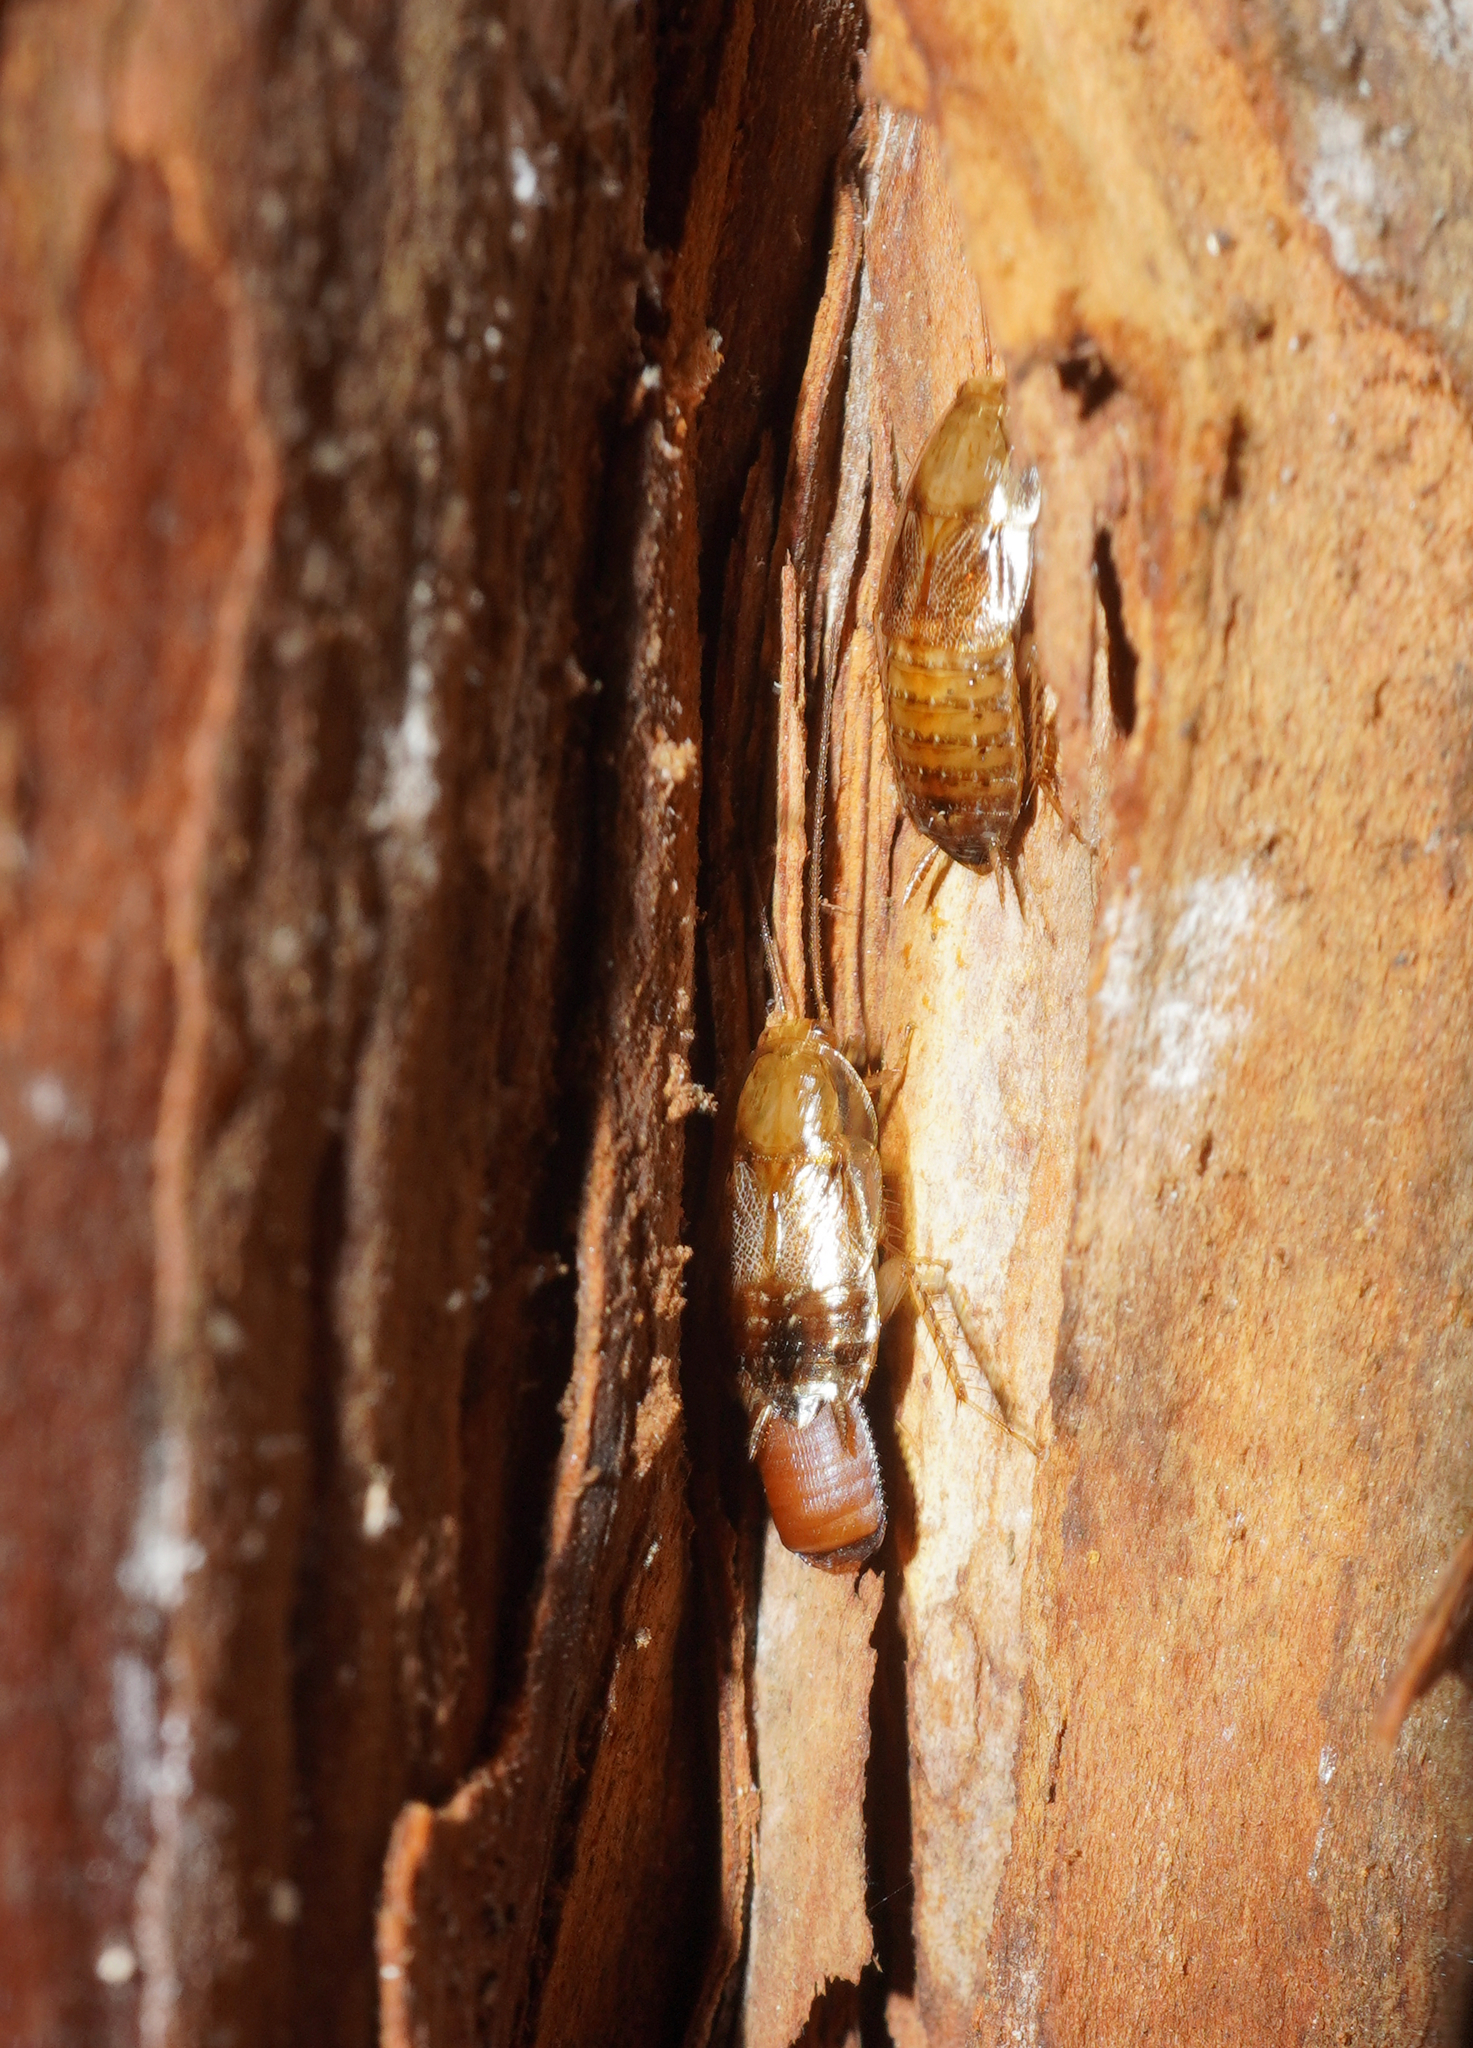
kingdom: Animalia
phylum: Arthropoda
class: Insecta
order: Blattodea
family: Ectobiidae
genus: Parellipsidion
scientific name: Parellipsidion pachycercum
